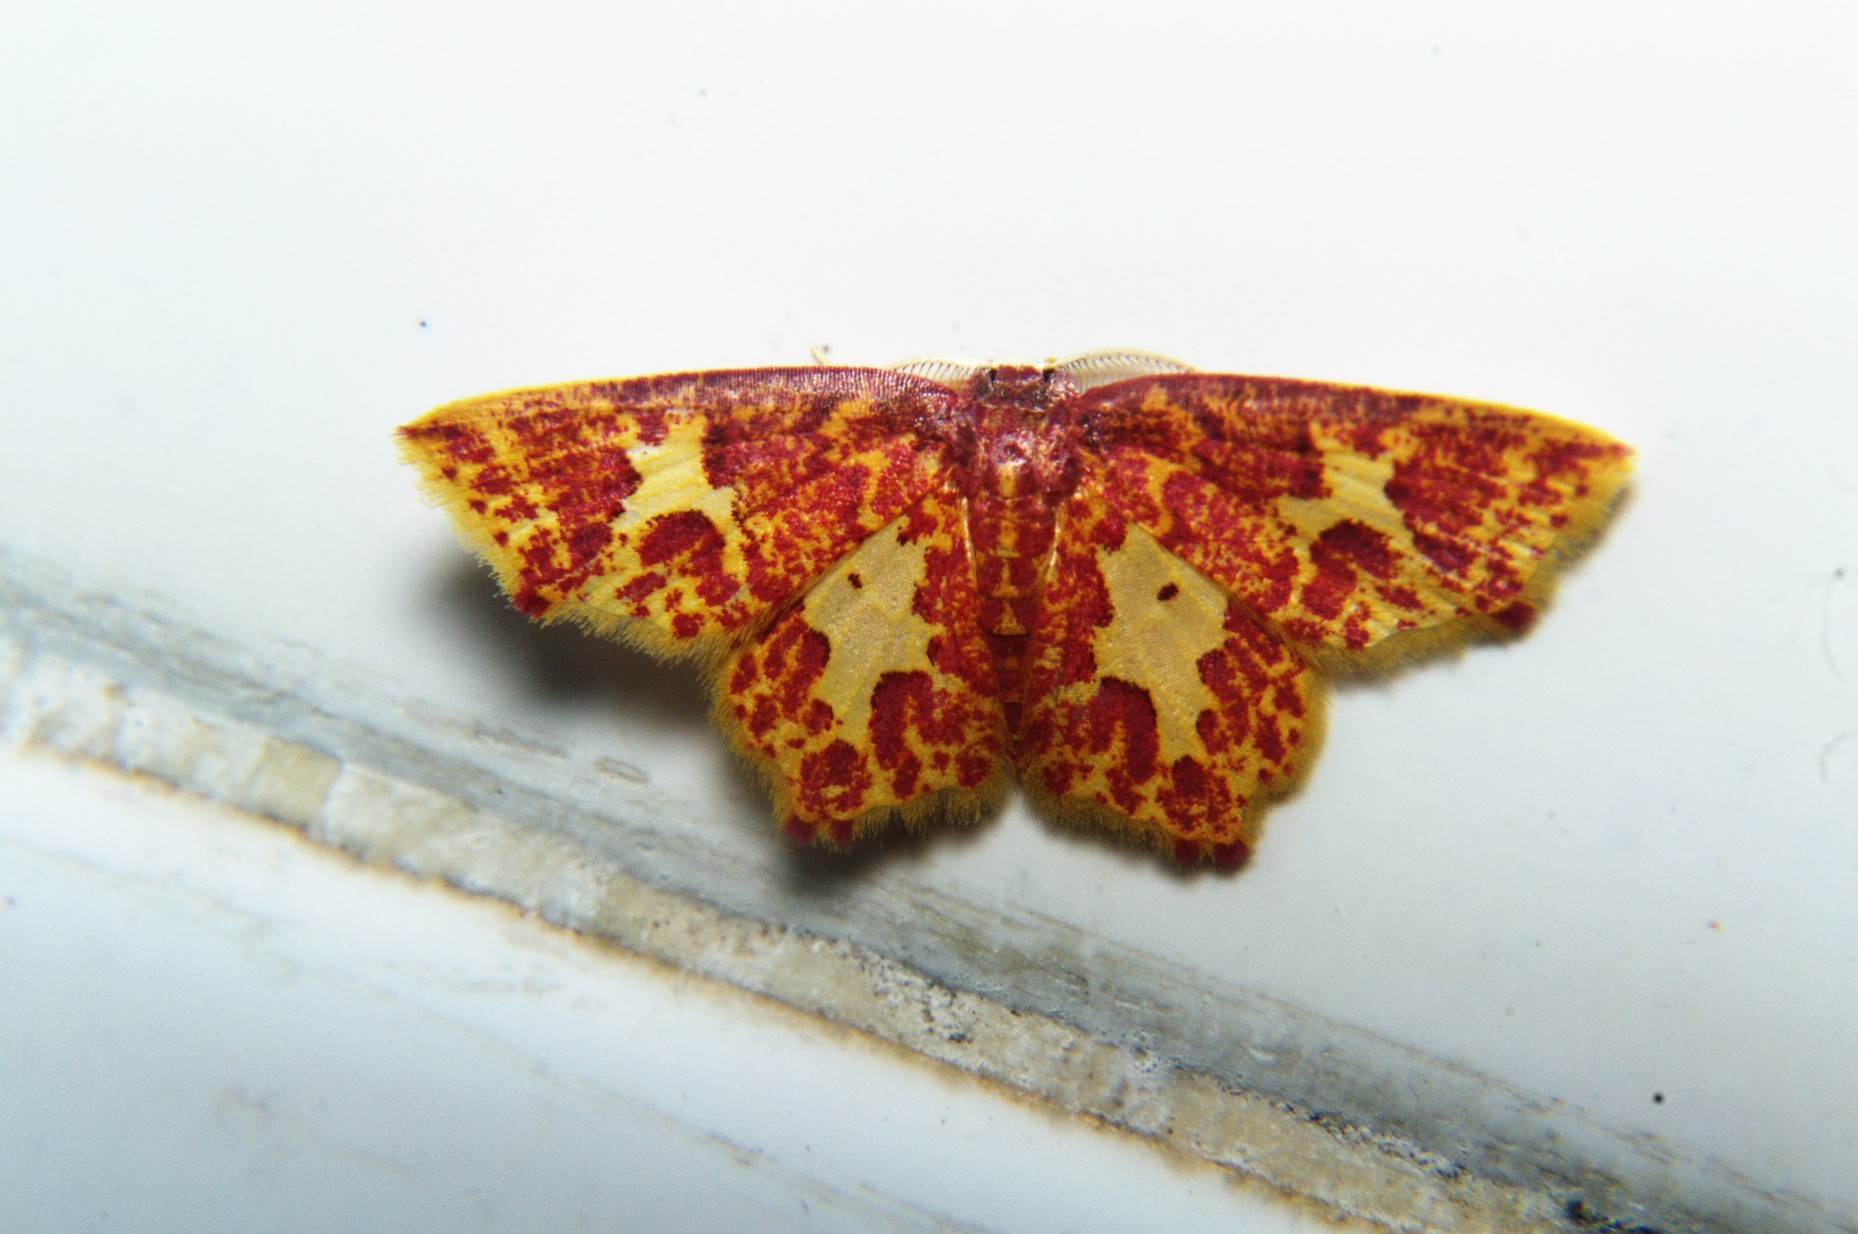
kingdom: Animalia
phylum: Arthropoda
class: Insecta
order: Lepidoptera
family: Geometridae
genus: Chrysocraspeda
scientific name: Chrysocraspeda faganaria
